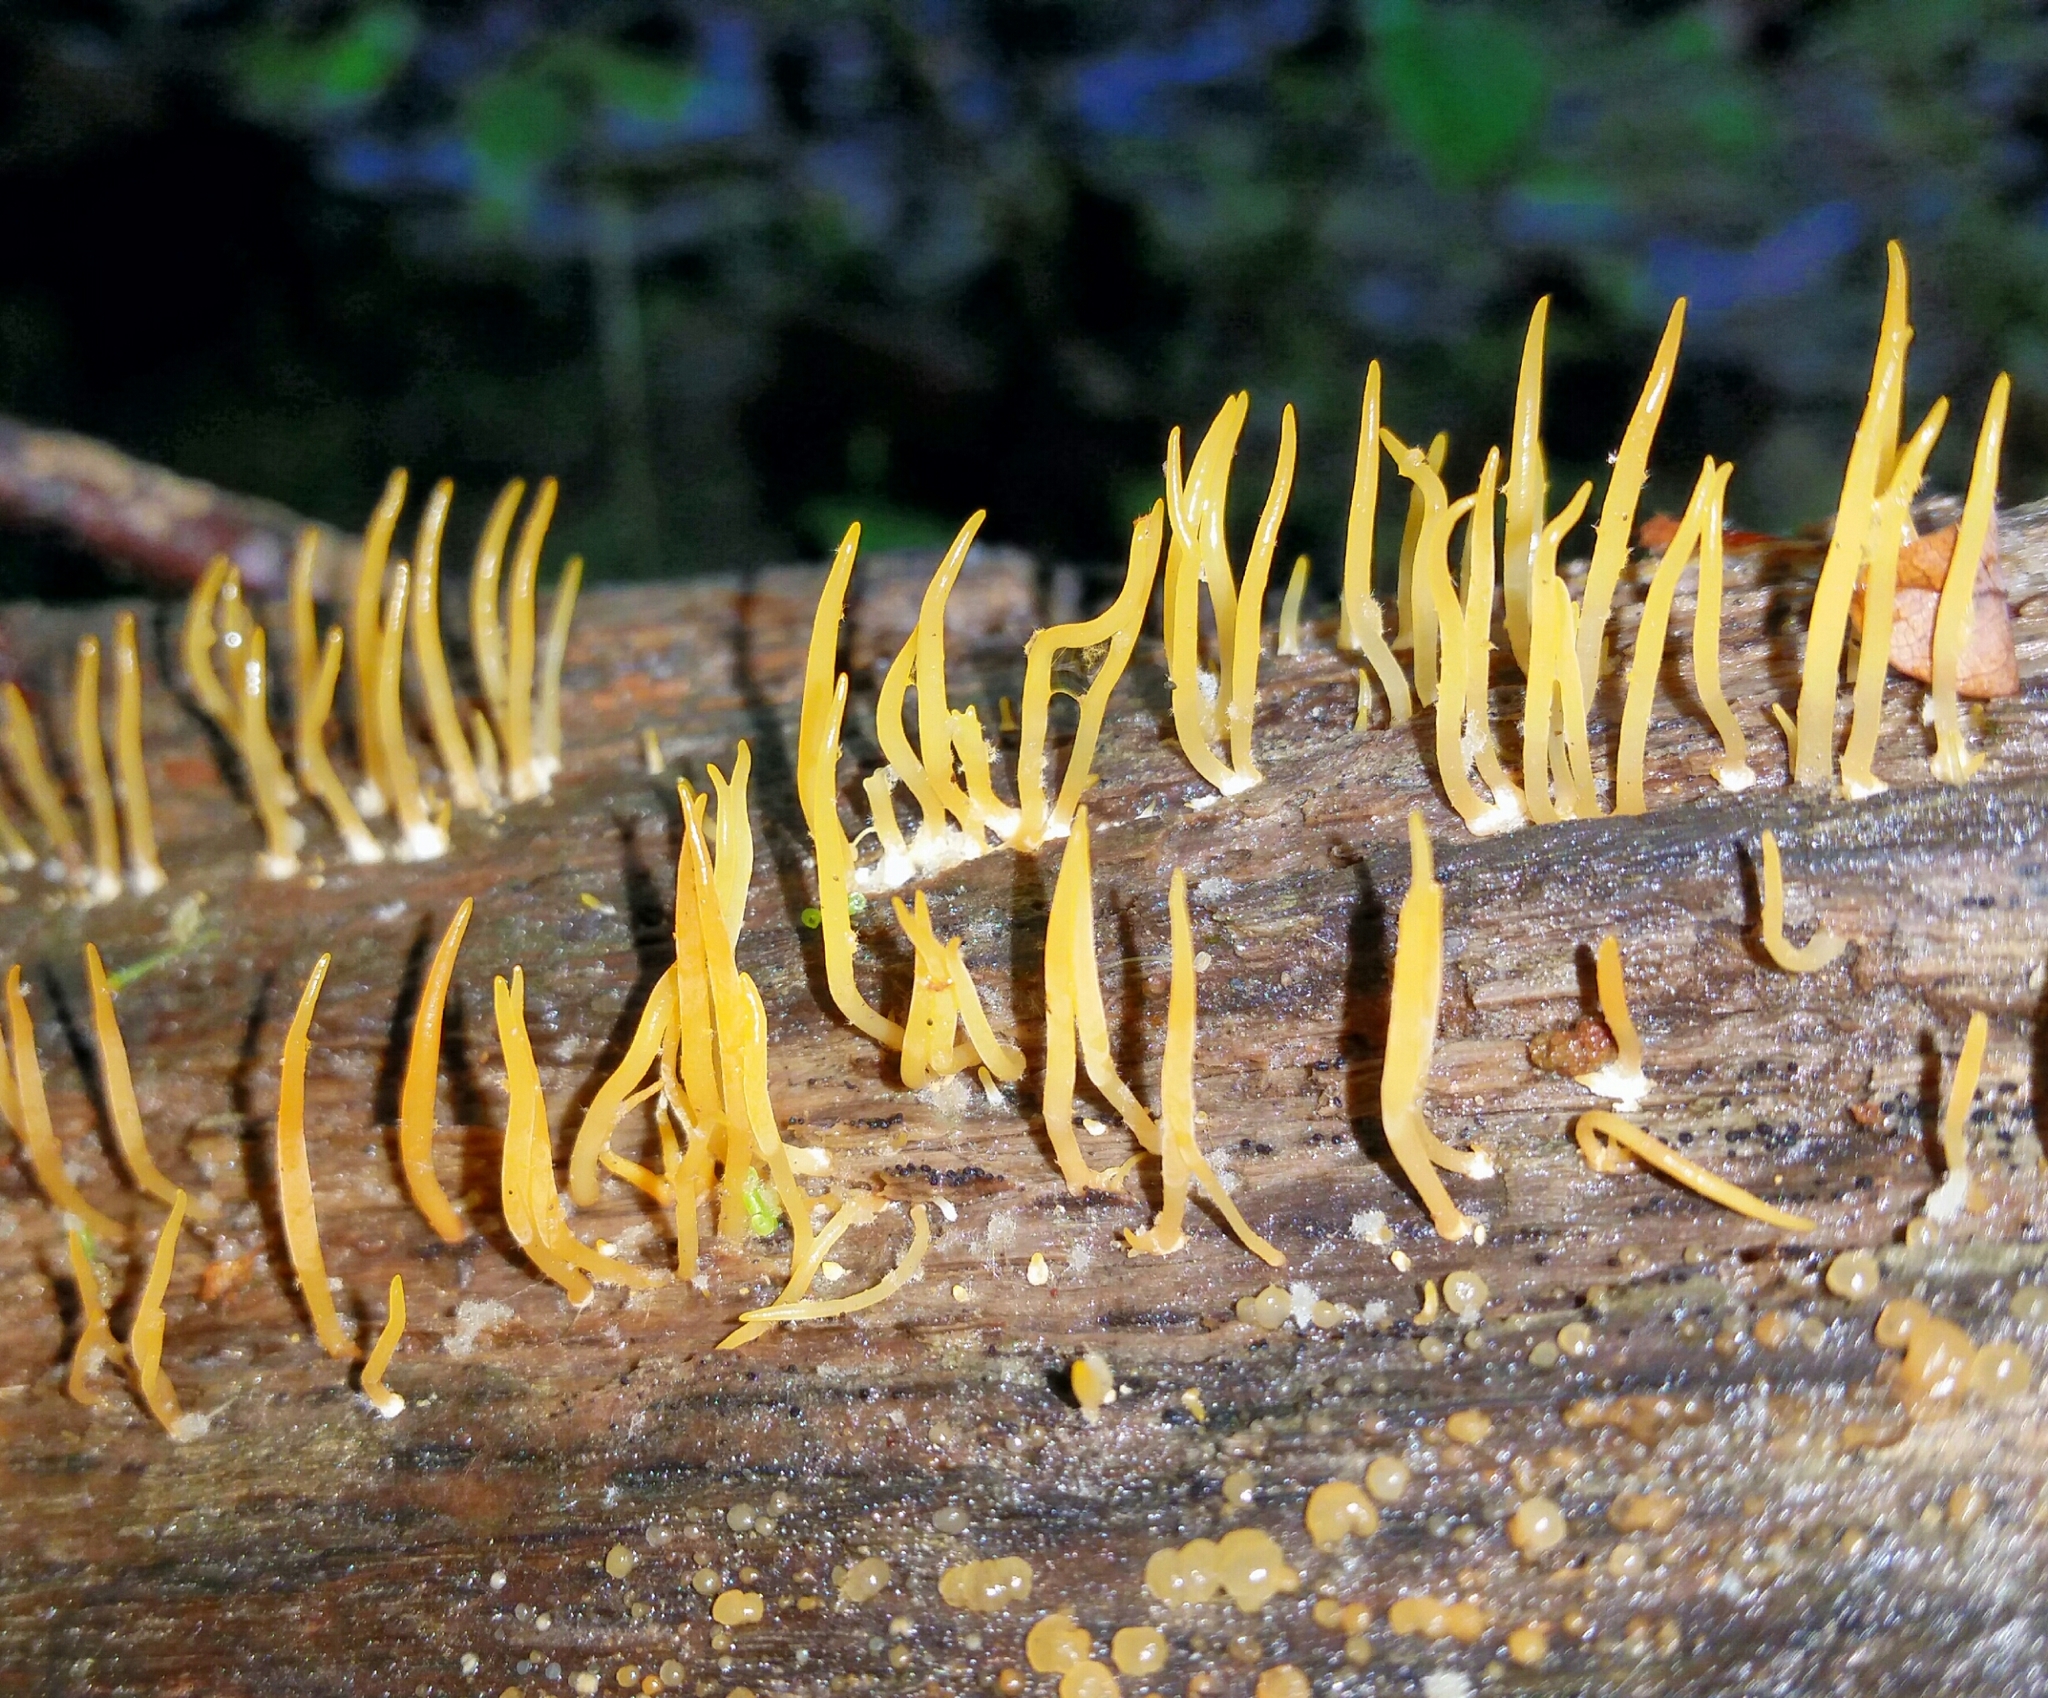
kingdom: Fungi
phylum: Basidiomycota
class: Dacrymycetes
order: Dacrymycetales
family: Dacrymycetaceae
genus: Calocera
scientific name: Calocera cornea
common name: Small stagshorn
